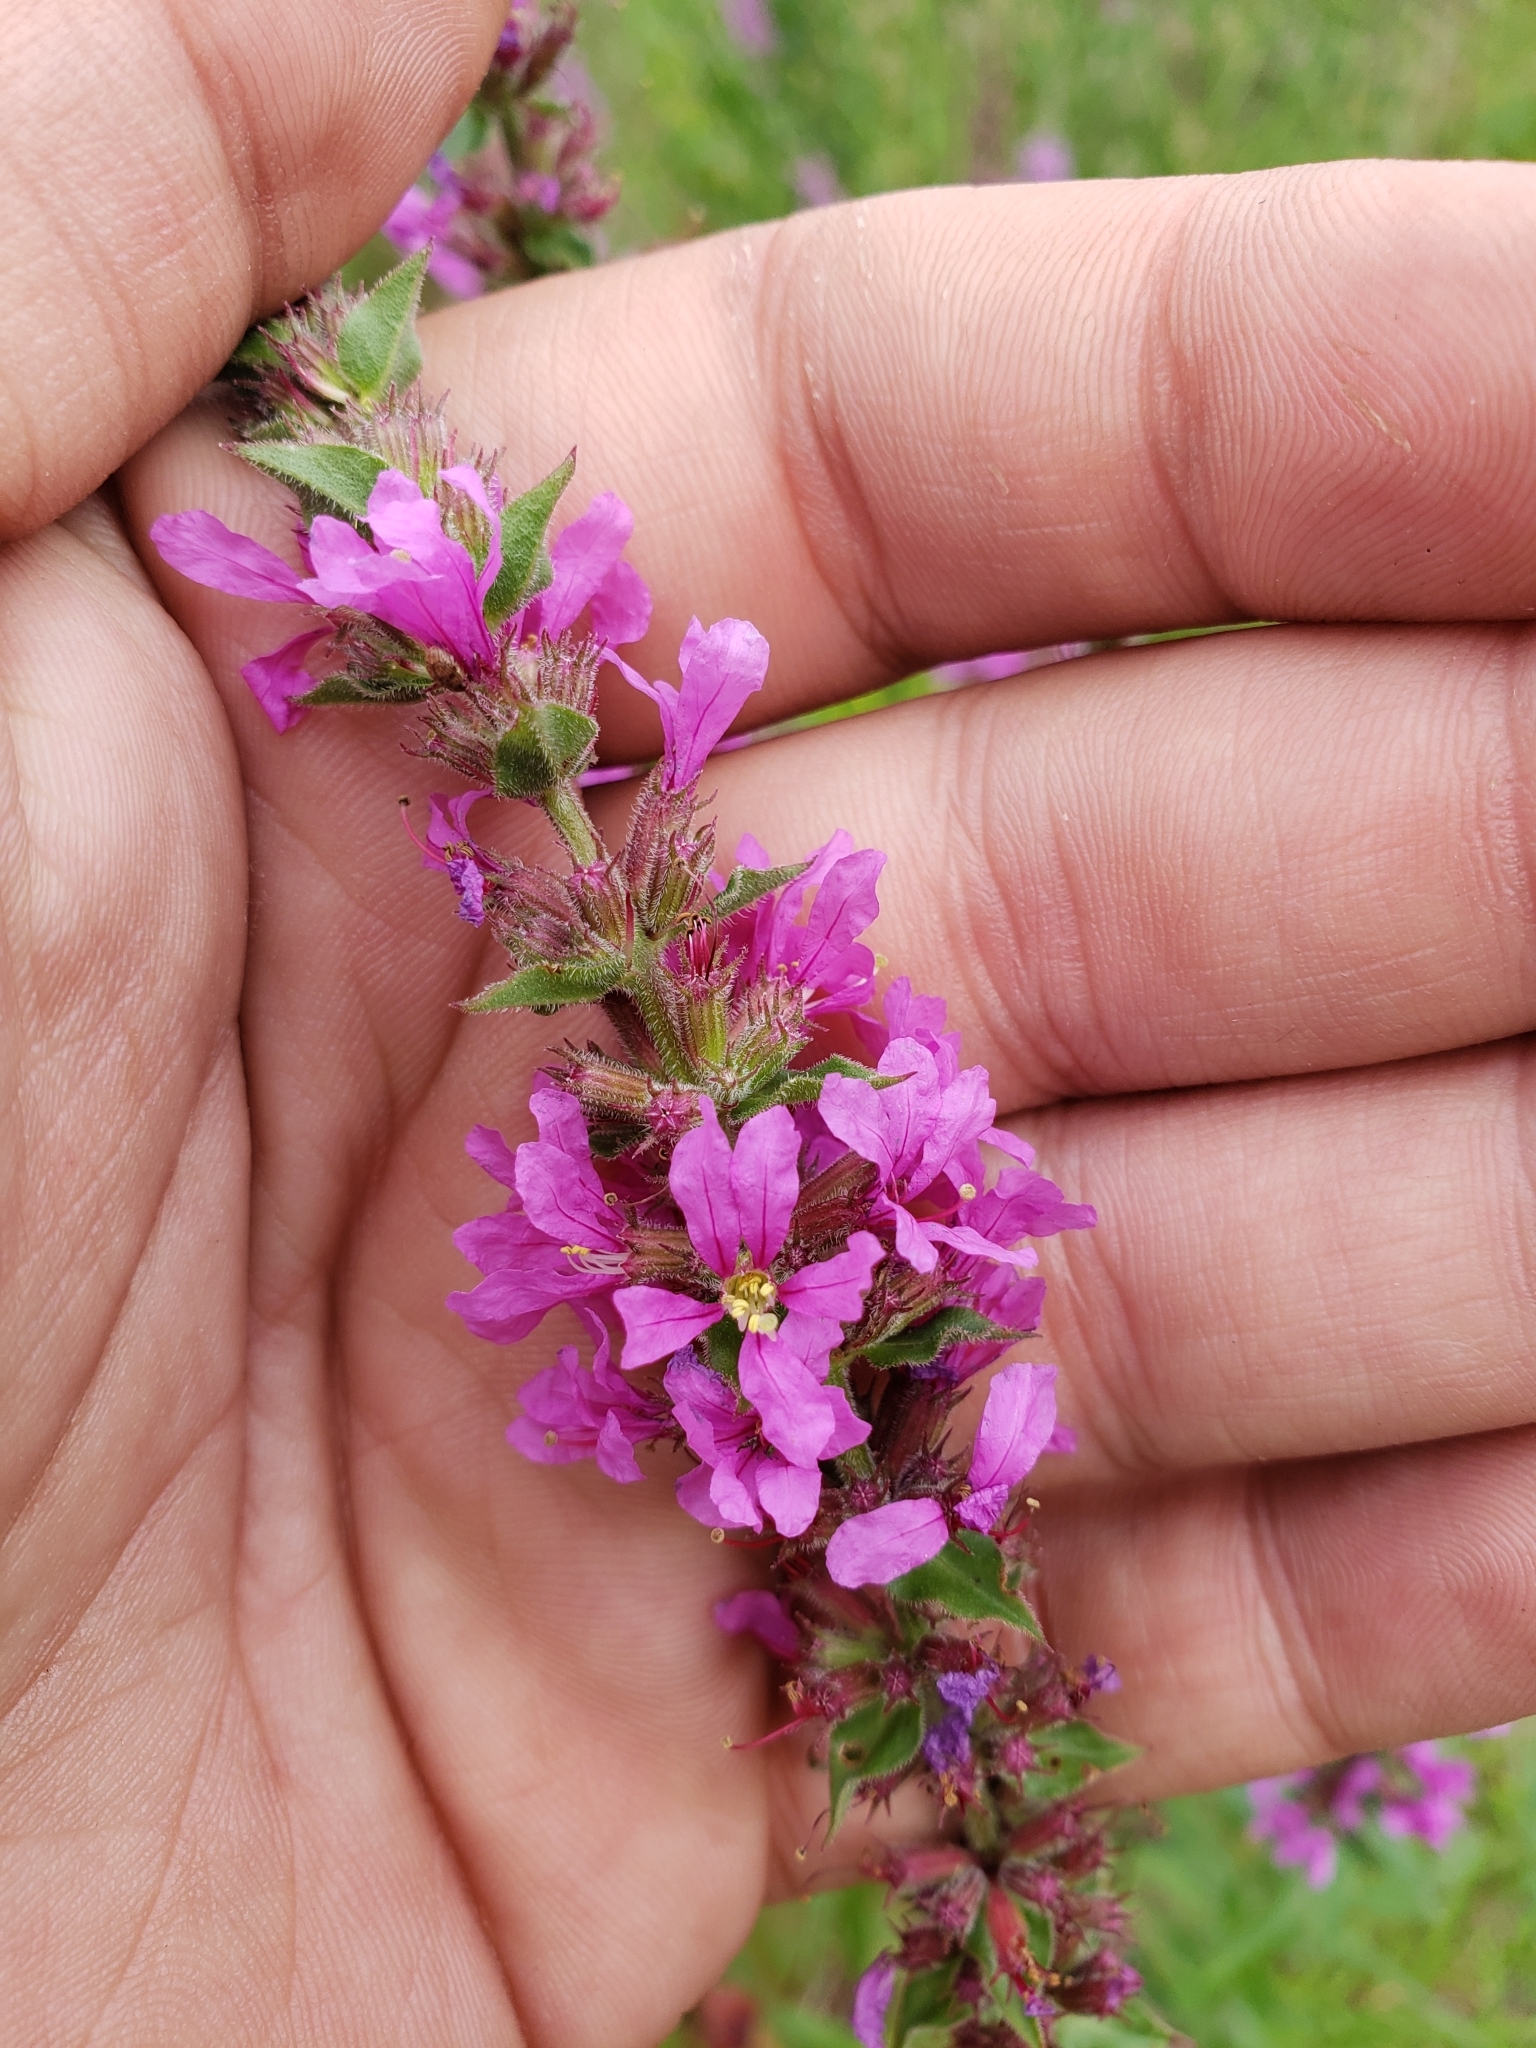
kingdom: Plantae
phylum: Tracheophyta
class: Magnoliopsida
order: Myrtales
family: Lythraceae
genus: Lythrum
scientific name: Lythrum salicaria
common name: Purple loosestrife
